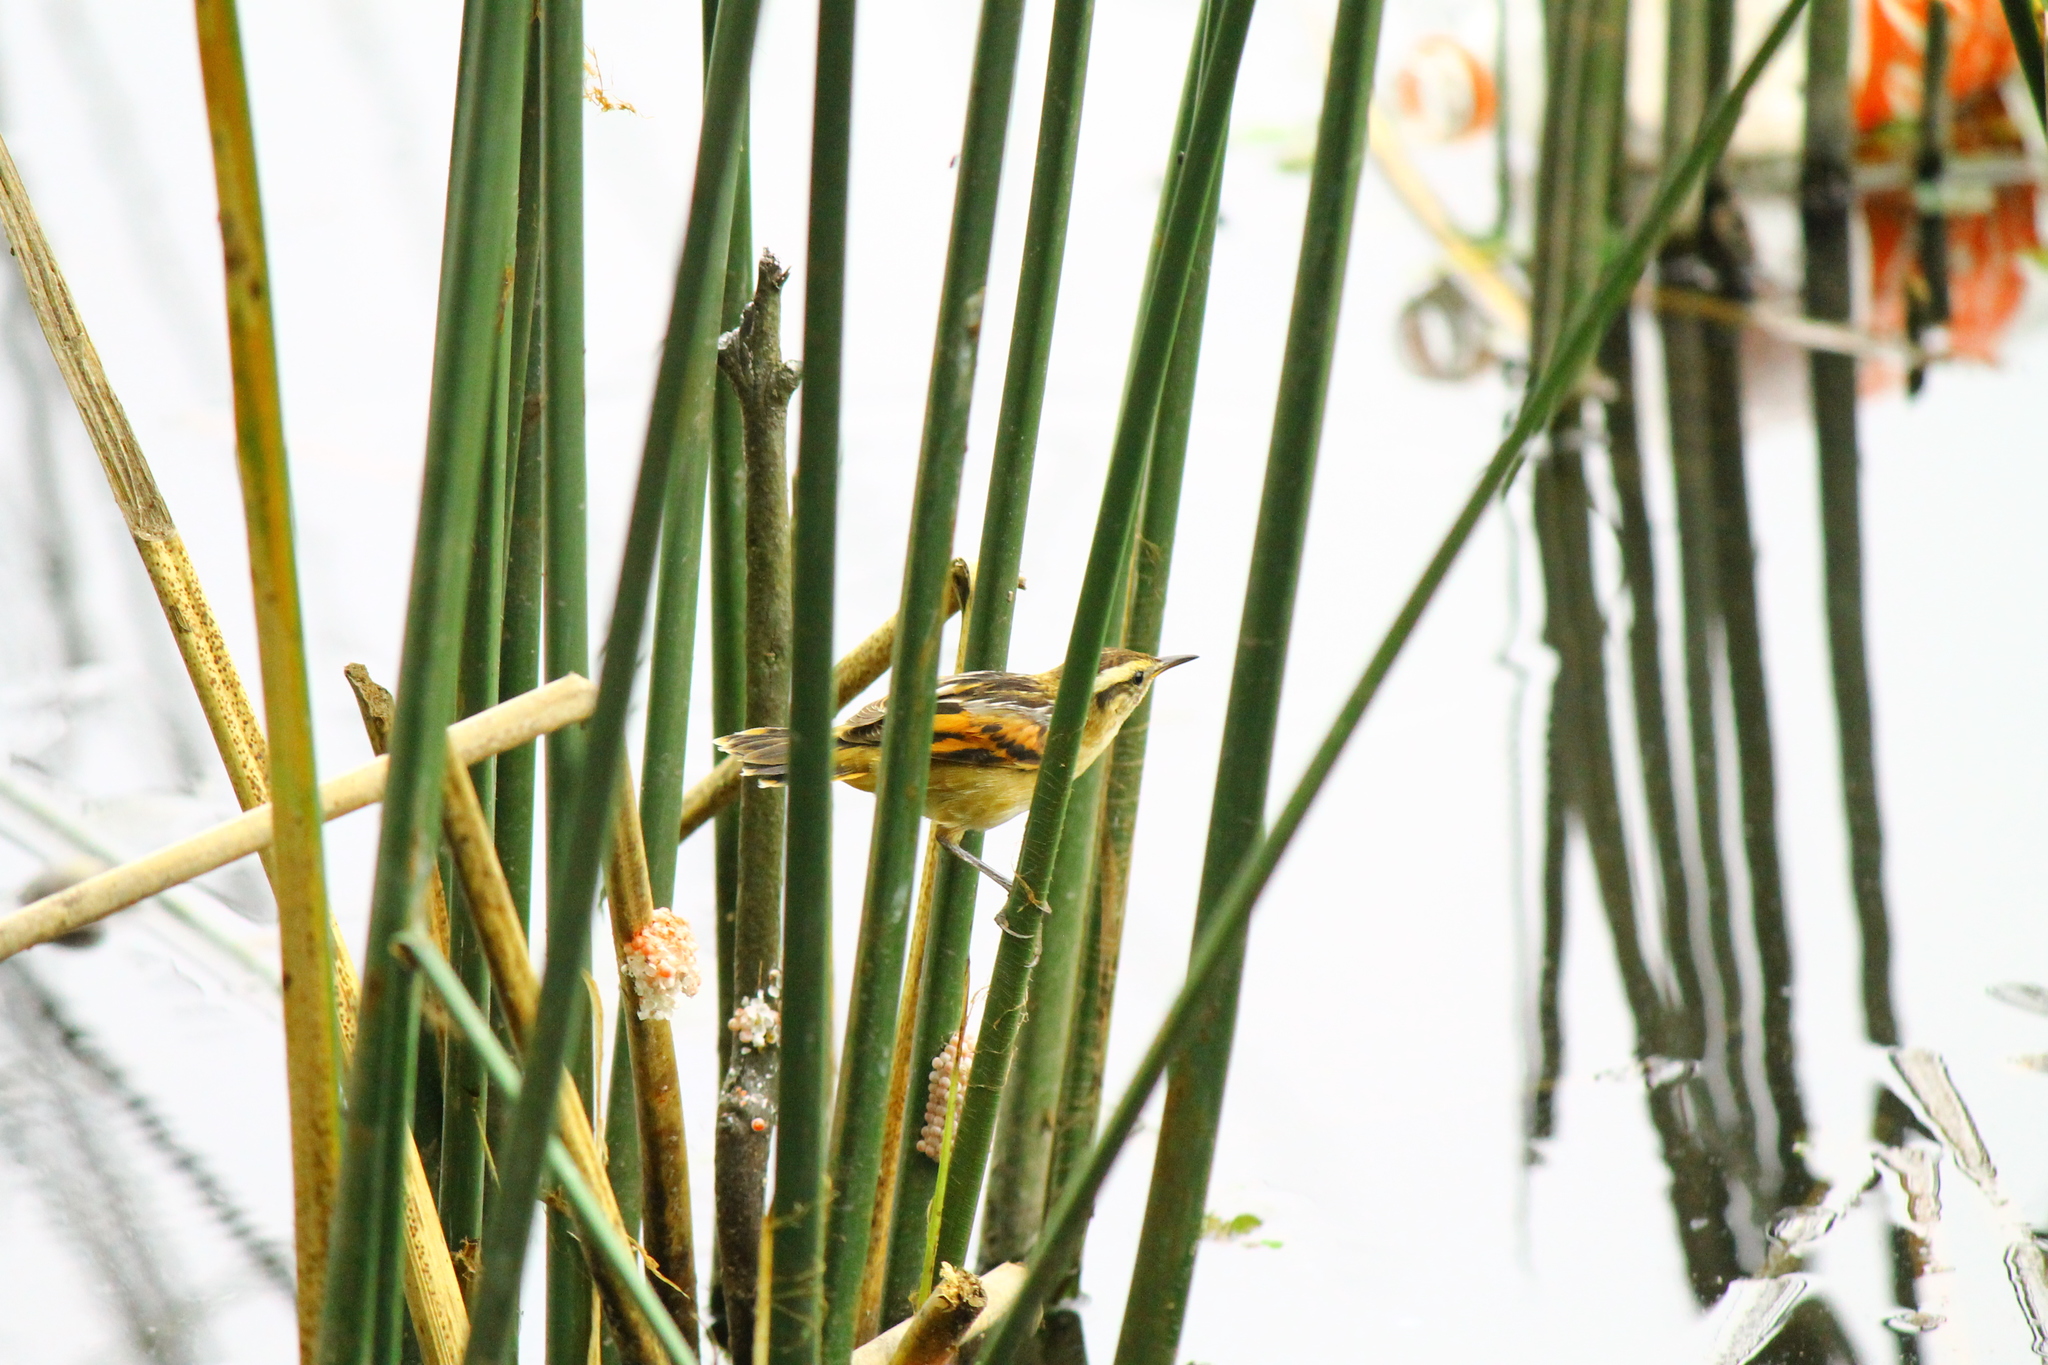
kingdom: Animalia
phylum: Chordata
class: Aves
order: Passeriformes
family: Furnariidae
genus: Phleocryptes
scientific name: Phleocryptes melanops
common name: Wren-like rushbird
